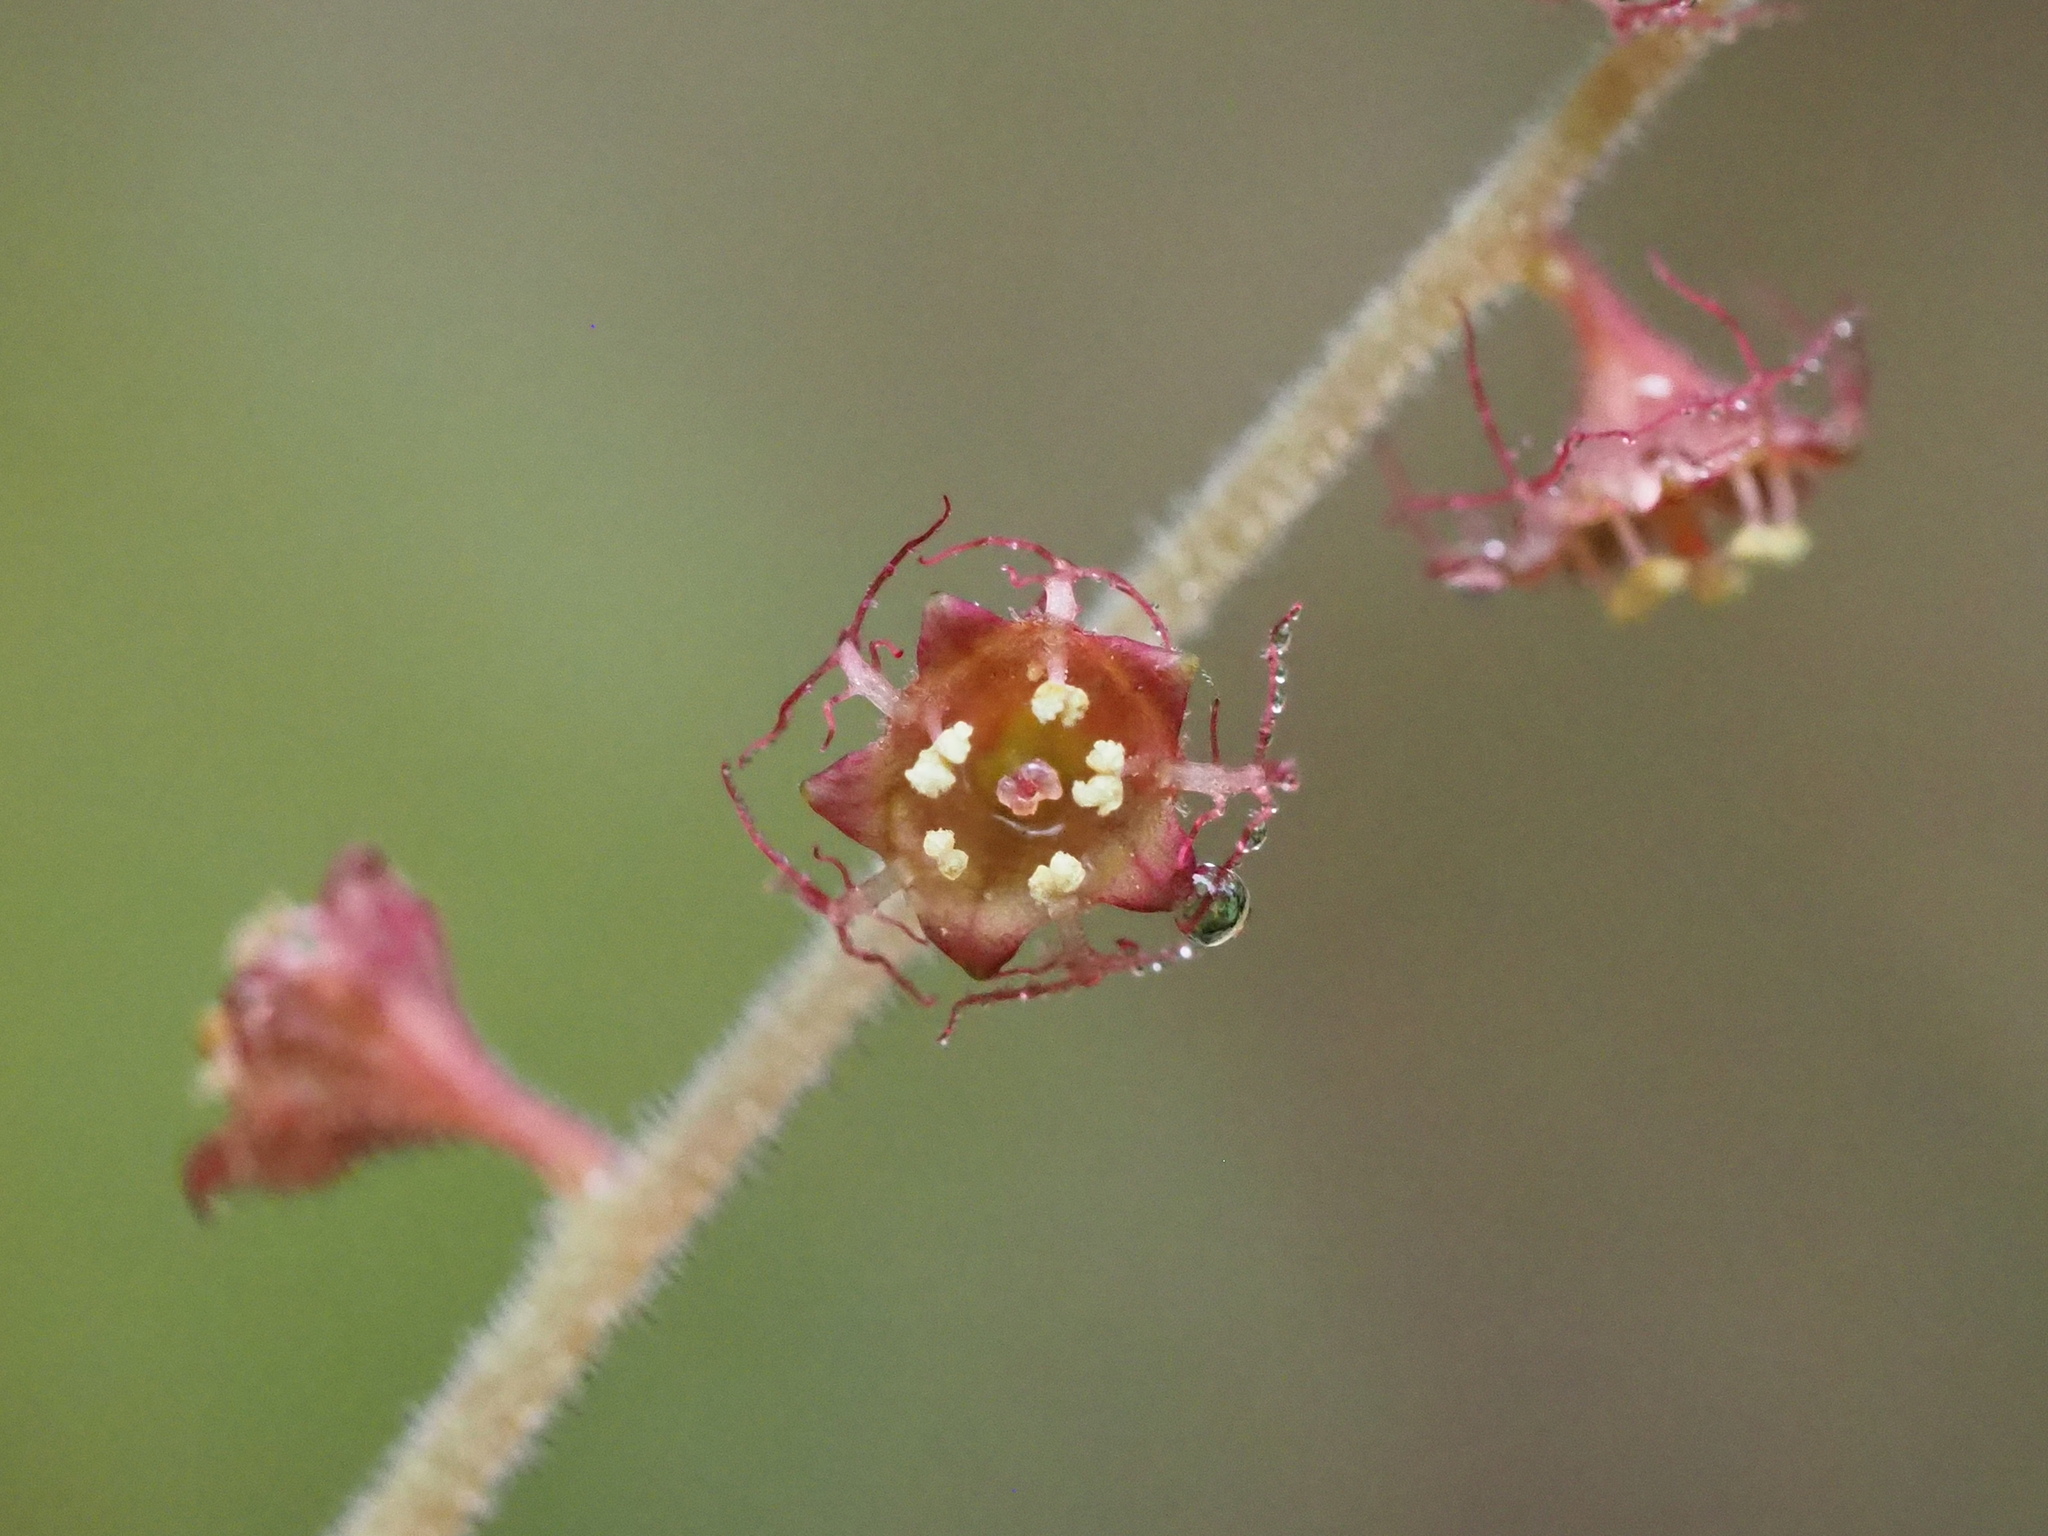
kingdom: Plantae
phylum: Tracheophyta
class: Magnoliopsida
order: Saxifragales
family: Saxifragaceae
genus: Asimitellaria
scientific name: Asimitellaria formosana
